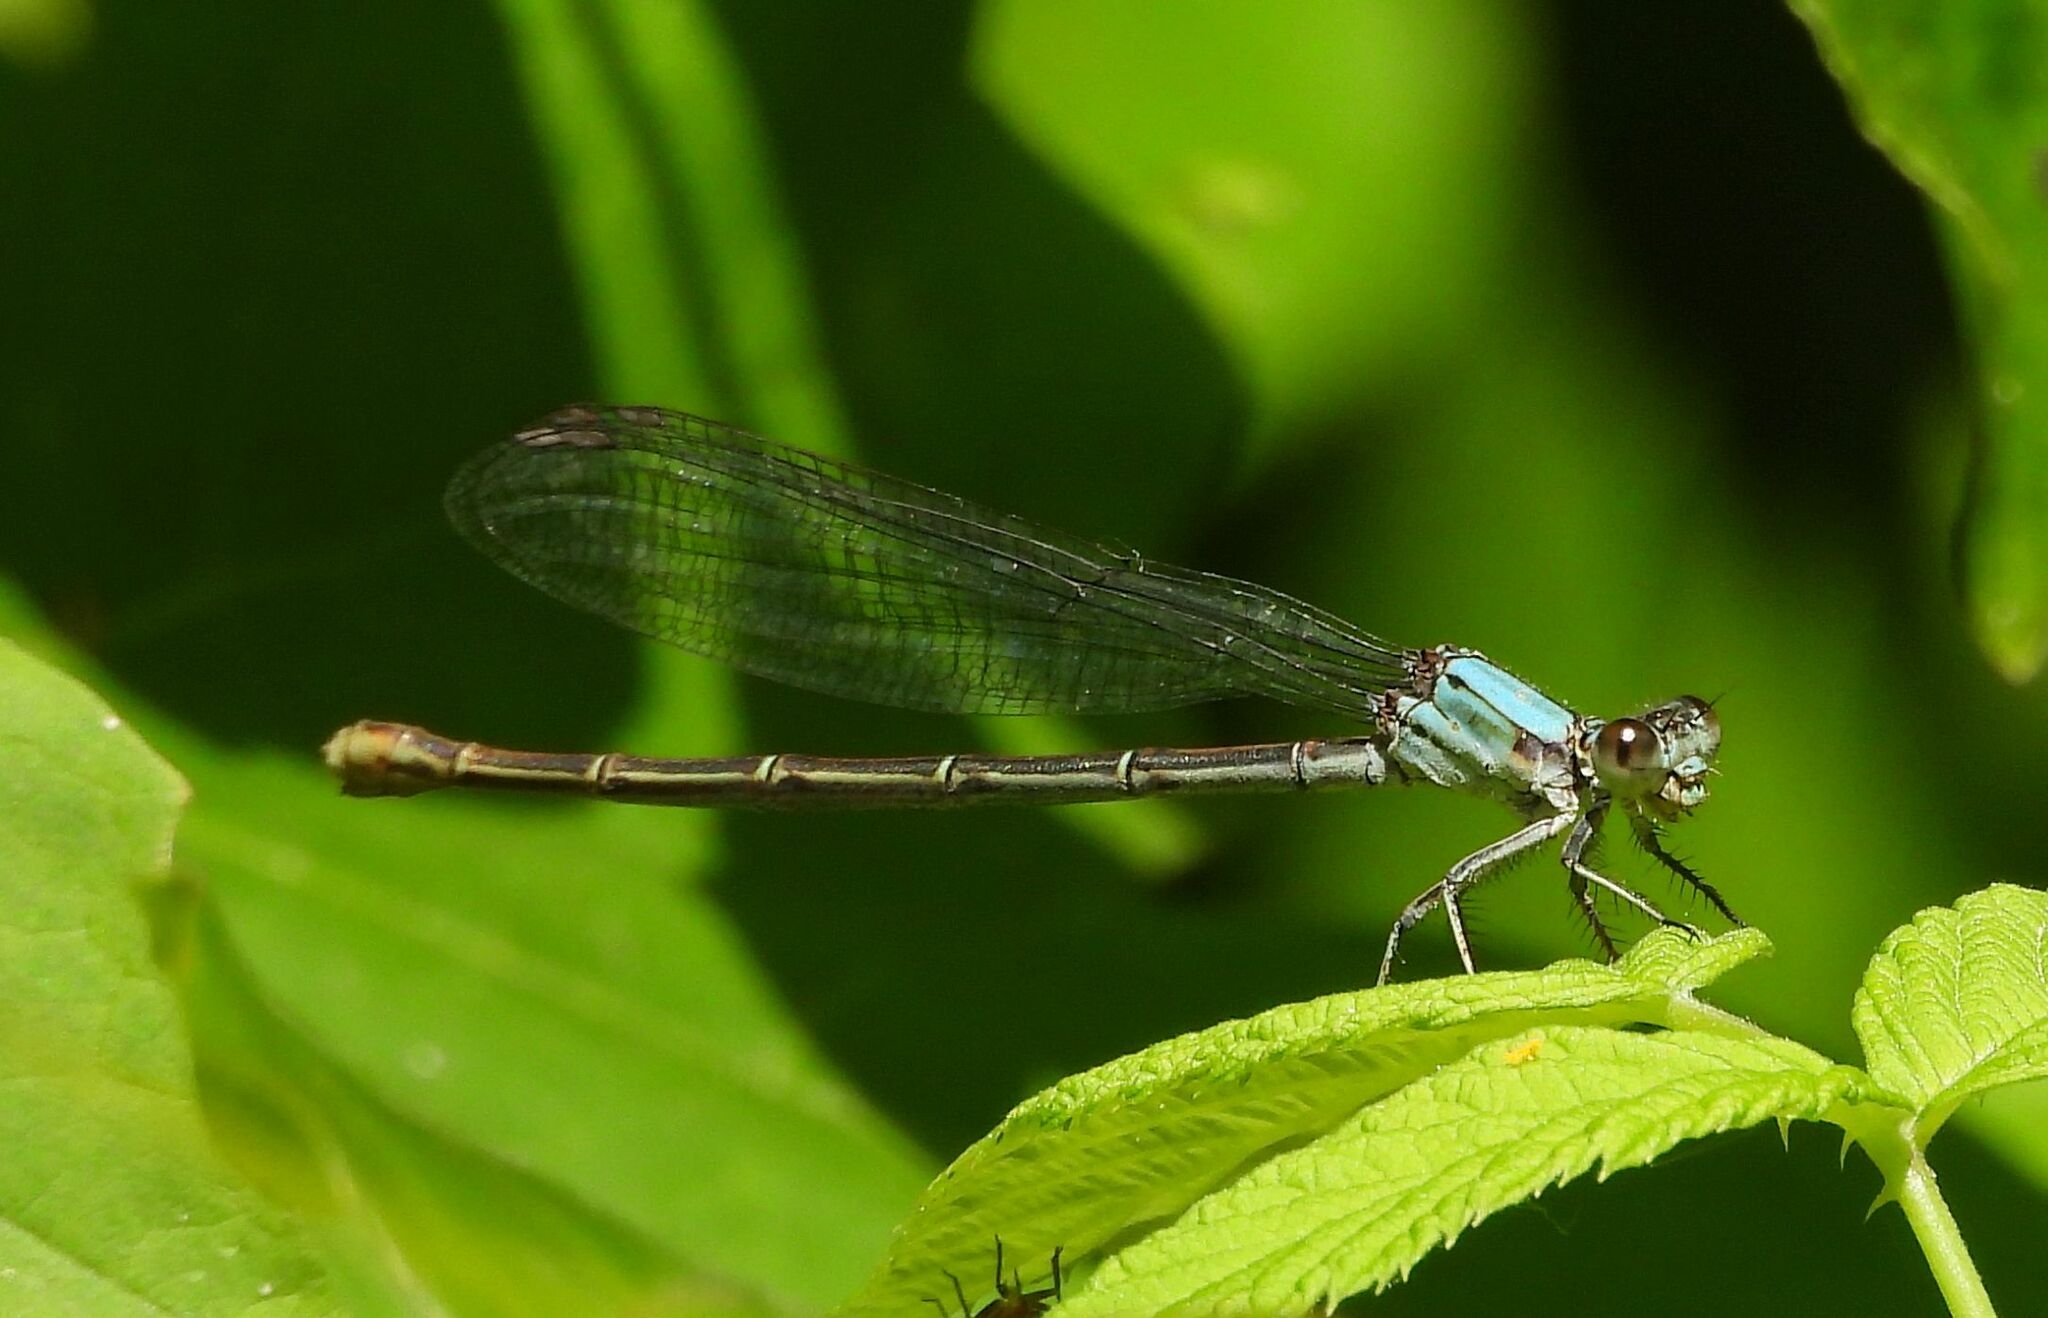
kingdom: Animalia
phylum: Arthropoda
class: Insecta
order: Odonata
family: Coenagrionidae
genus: Argia
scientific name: Argia moesta
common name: Powdered dancer
